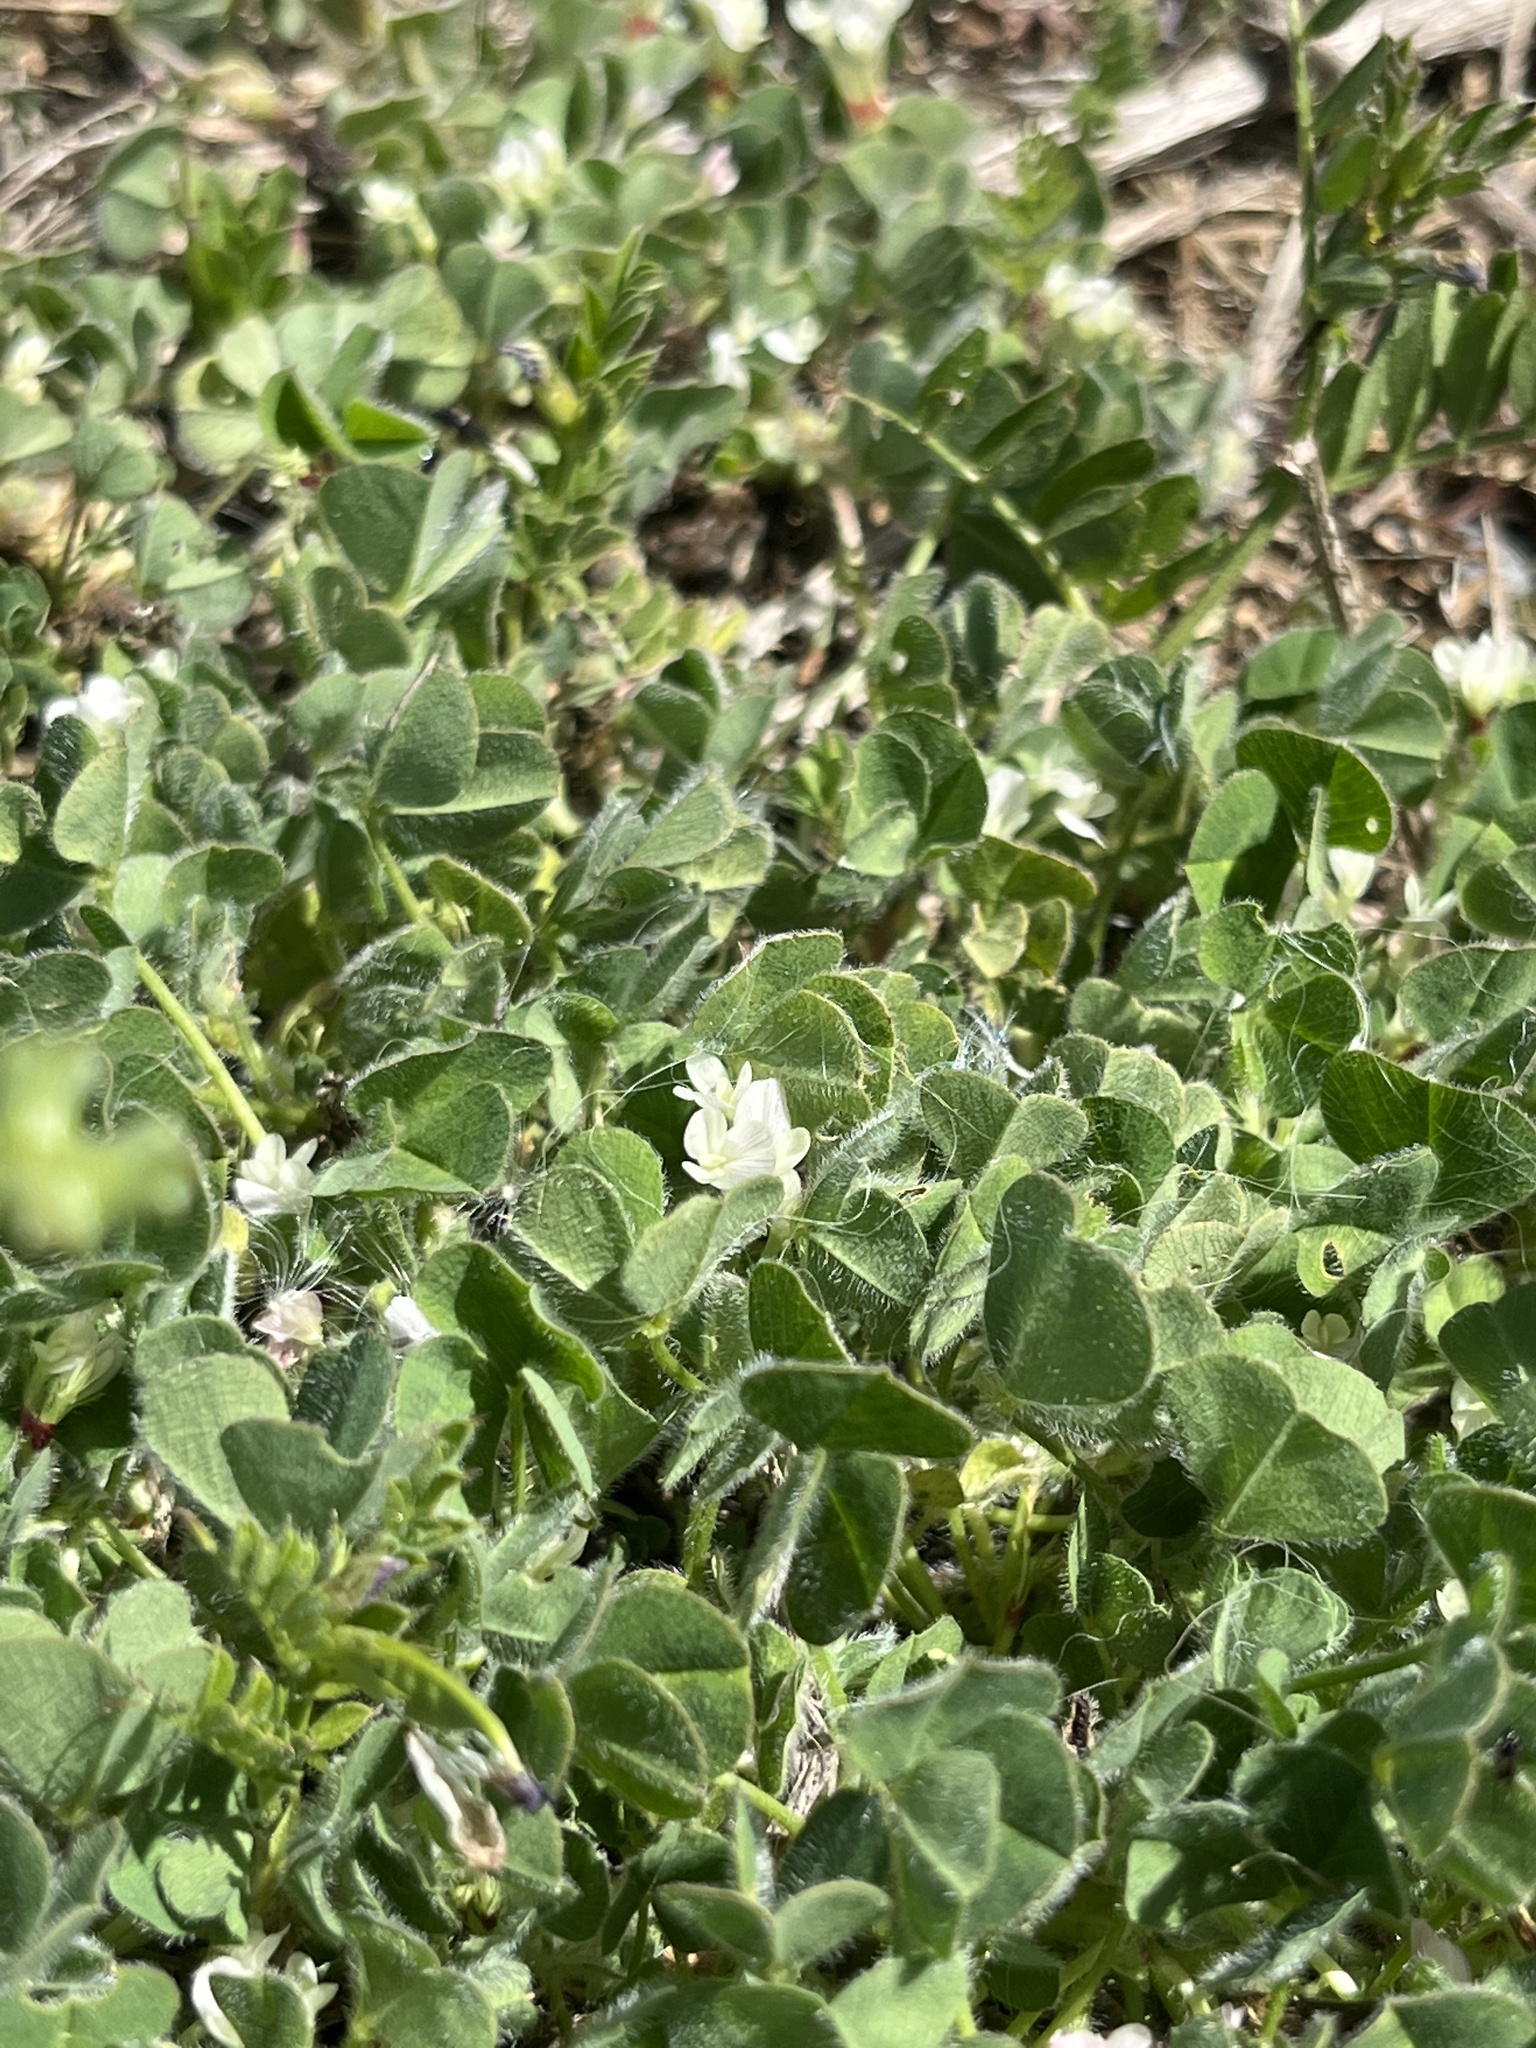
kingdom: Plantae
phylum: Tracheophyta
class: Magnoliopsida
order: Fabales
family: Fabaceae
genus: Trifolium
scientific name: Trifolium subterraneum
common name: Subterranean clover
